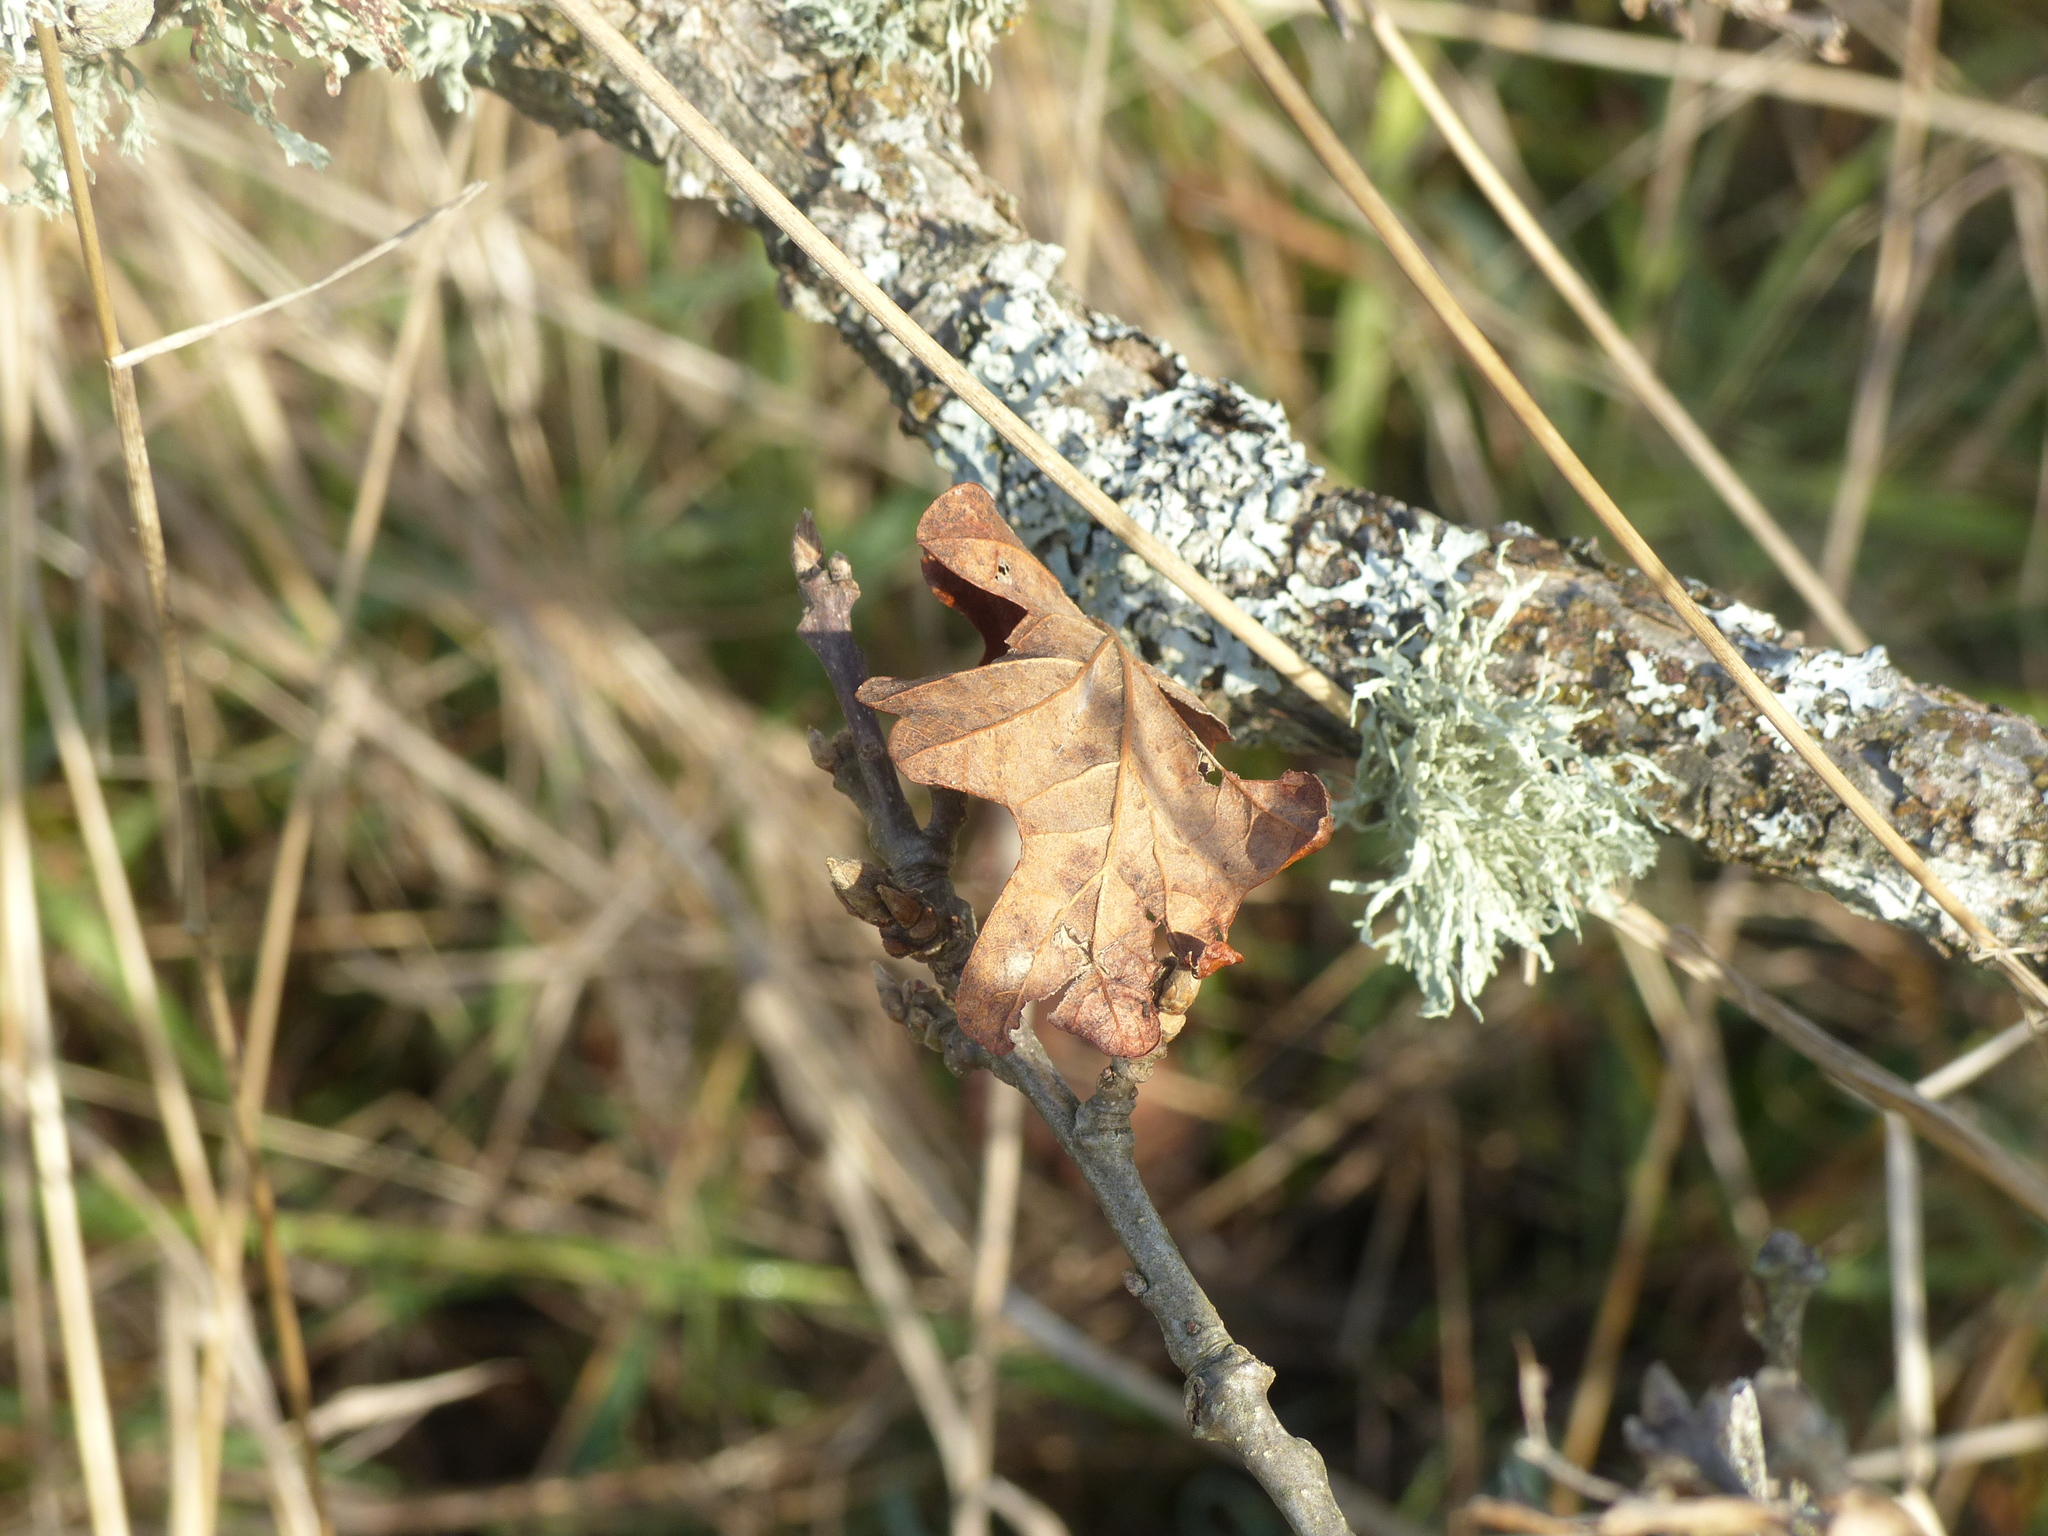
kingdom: Plantae
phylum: Tracheophyta
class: Magnoliopsida
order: Fagales
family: Fagaceae
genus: Quercus
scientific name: Quercus garryana
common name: Garry oak
